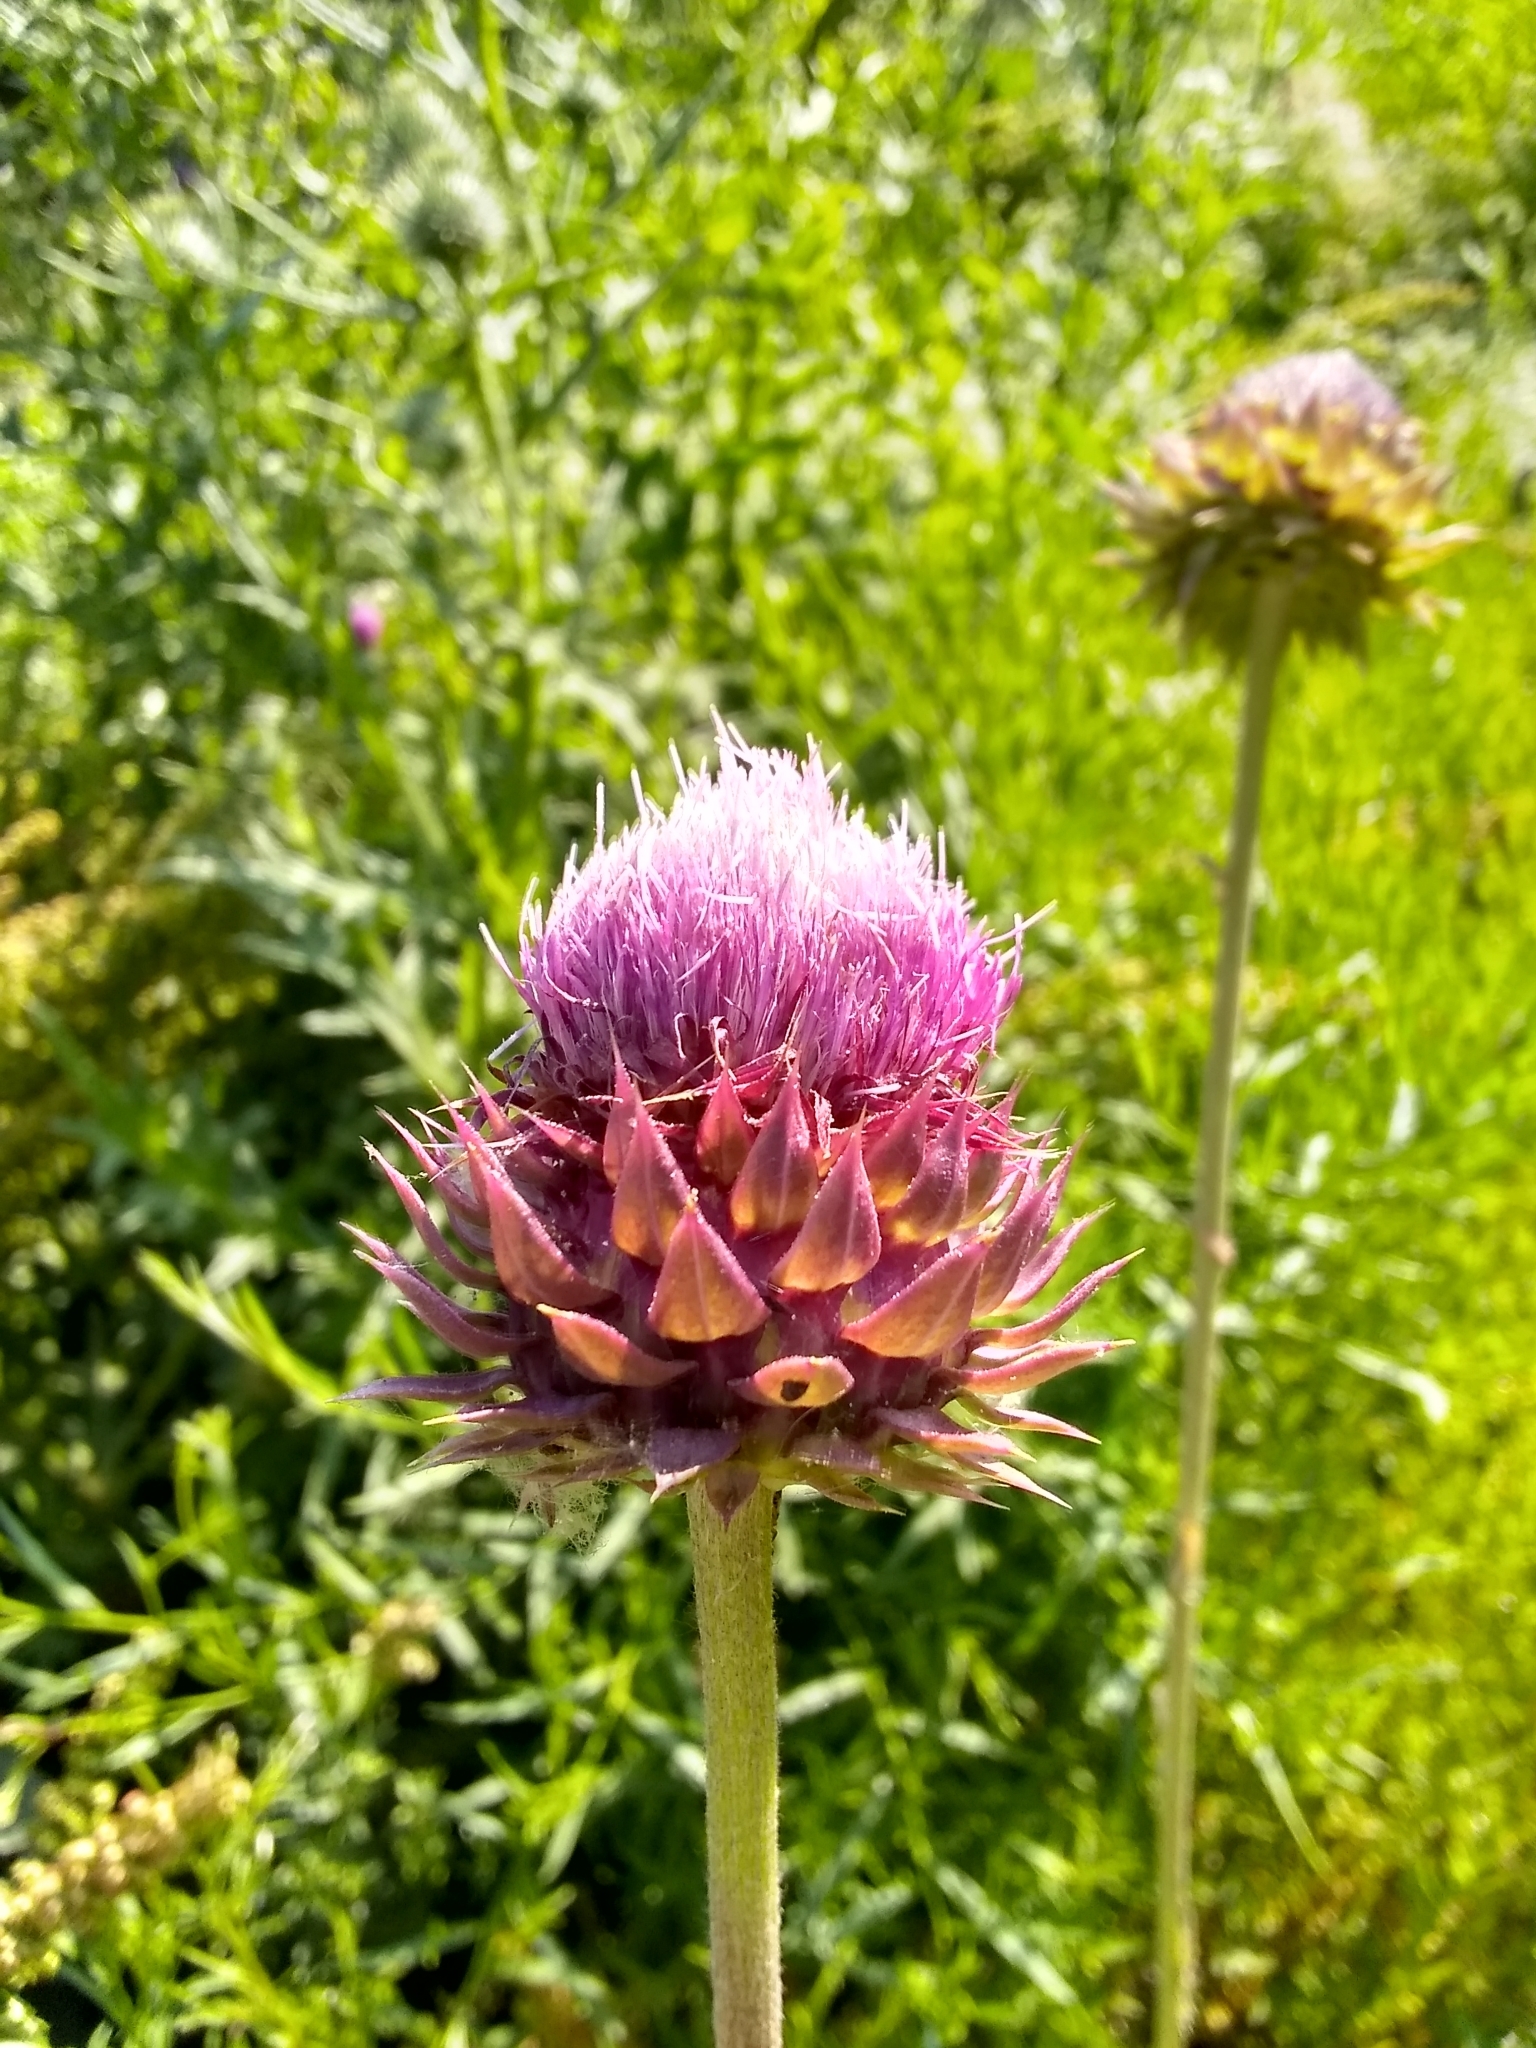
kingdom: Plantae
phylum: Tracheophyta
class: Magnoliopsida
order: Asterales
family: Asteraceae
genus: Carduus
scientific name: Carduus nutans
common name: Musk thistle
